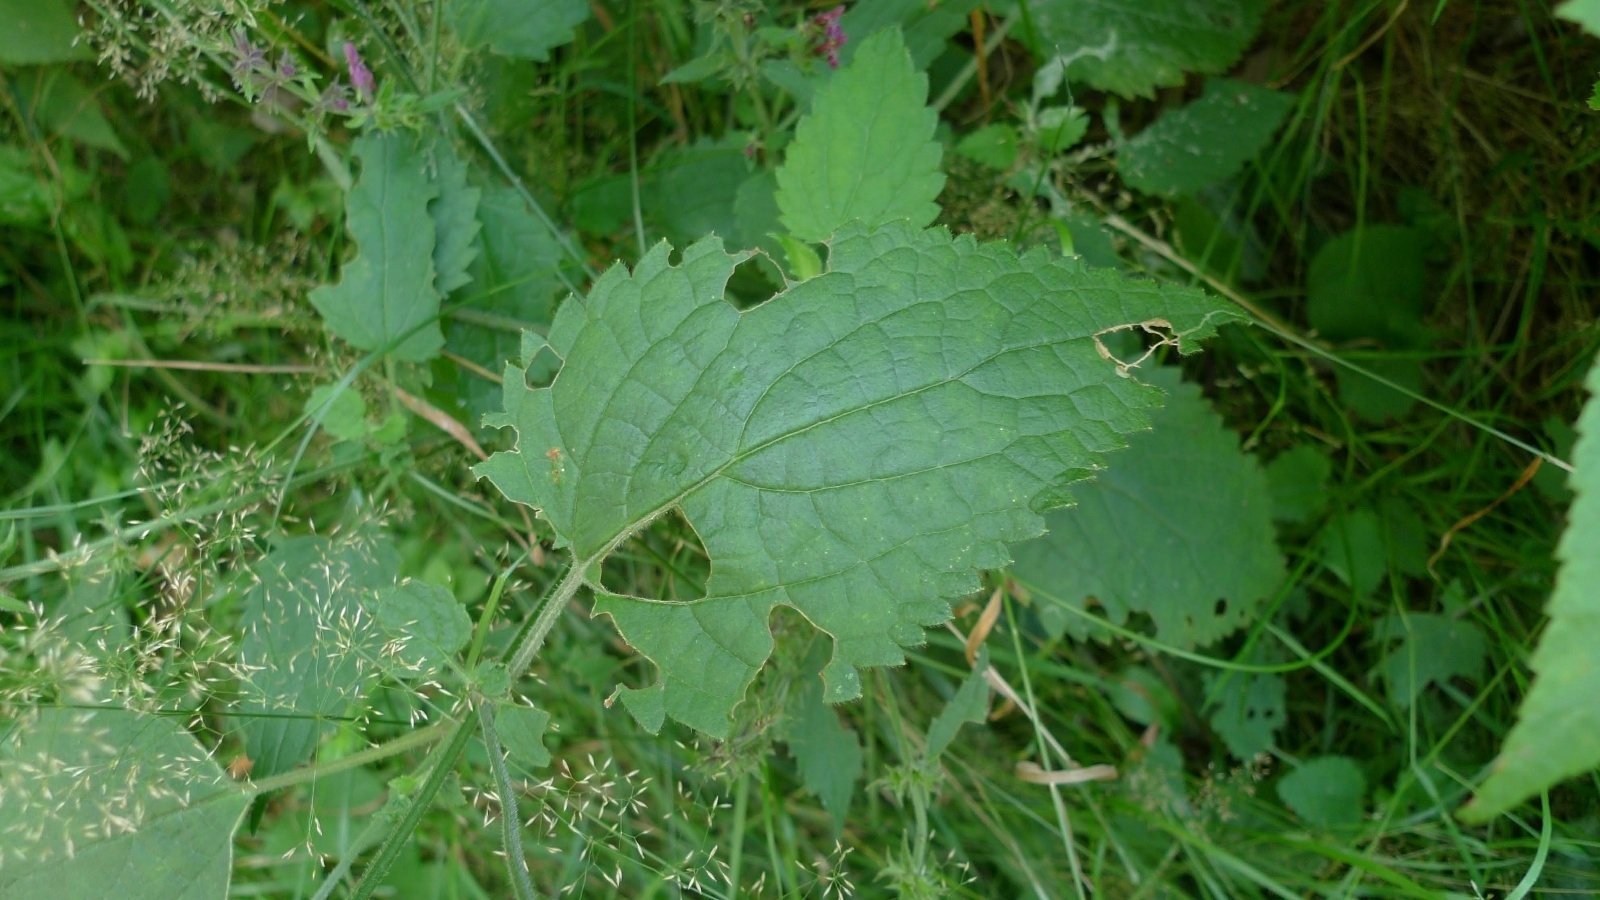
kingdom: Plantae
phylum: Tracheophyta
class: Magnoliopsida
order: Lamiales
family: Lamiaceae
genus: Stachys
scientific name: Stachys sylvatica
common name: Hedge woundwort
